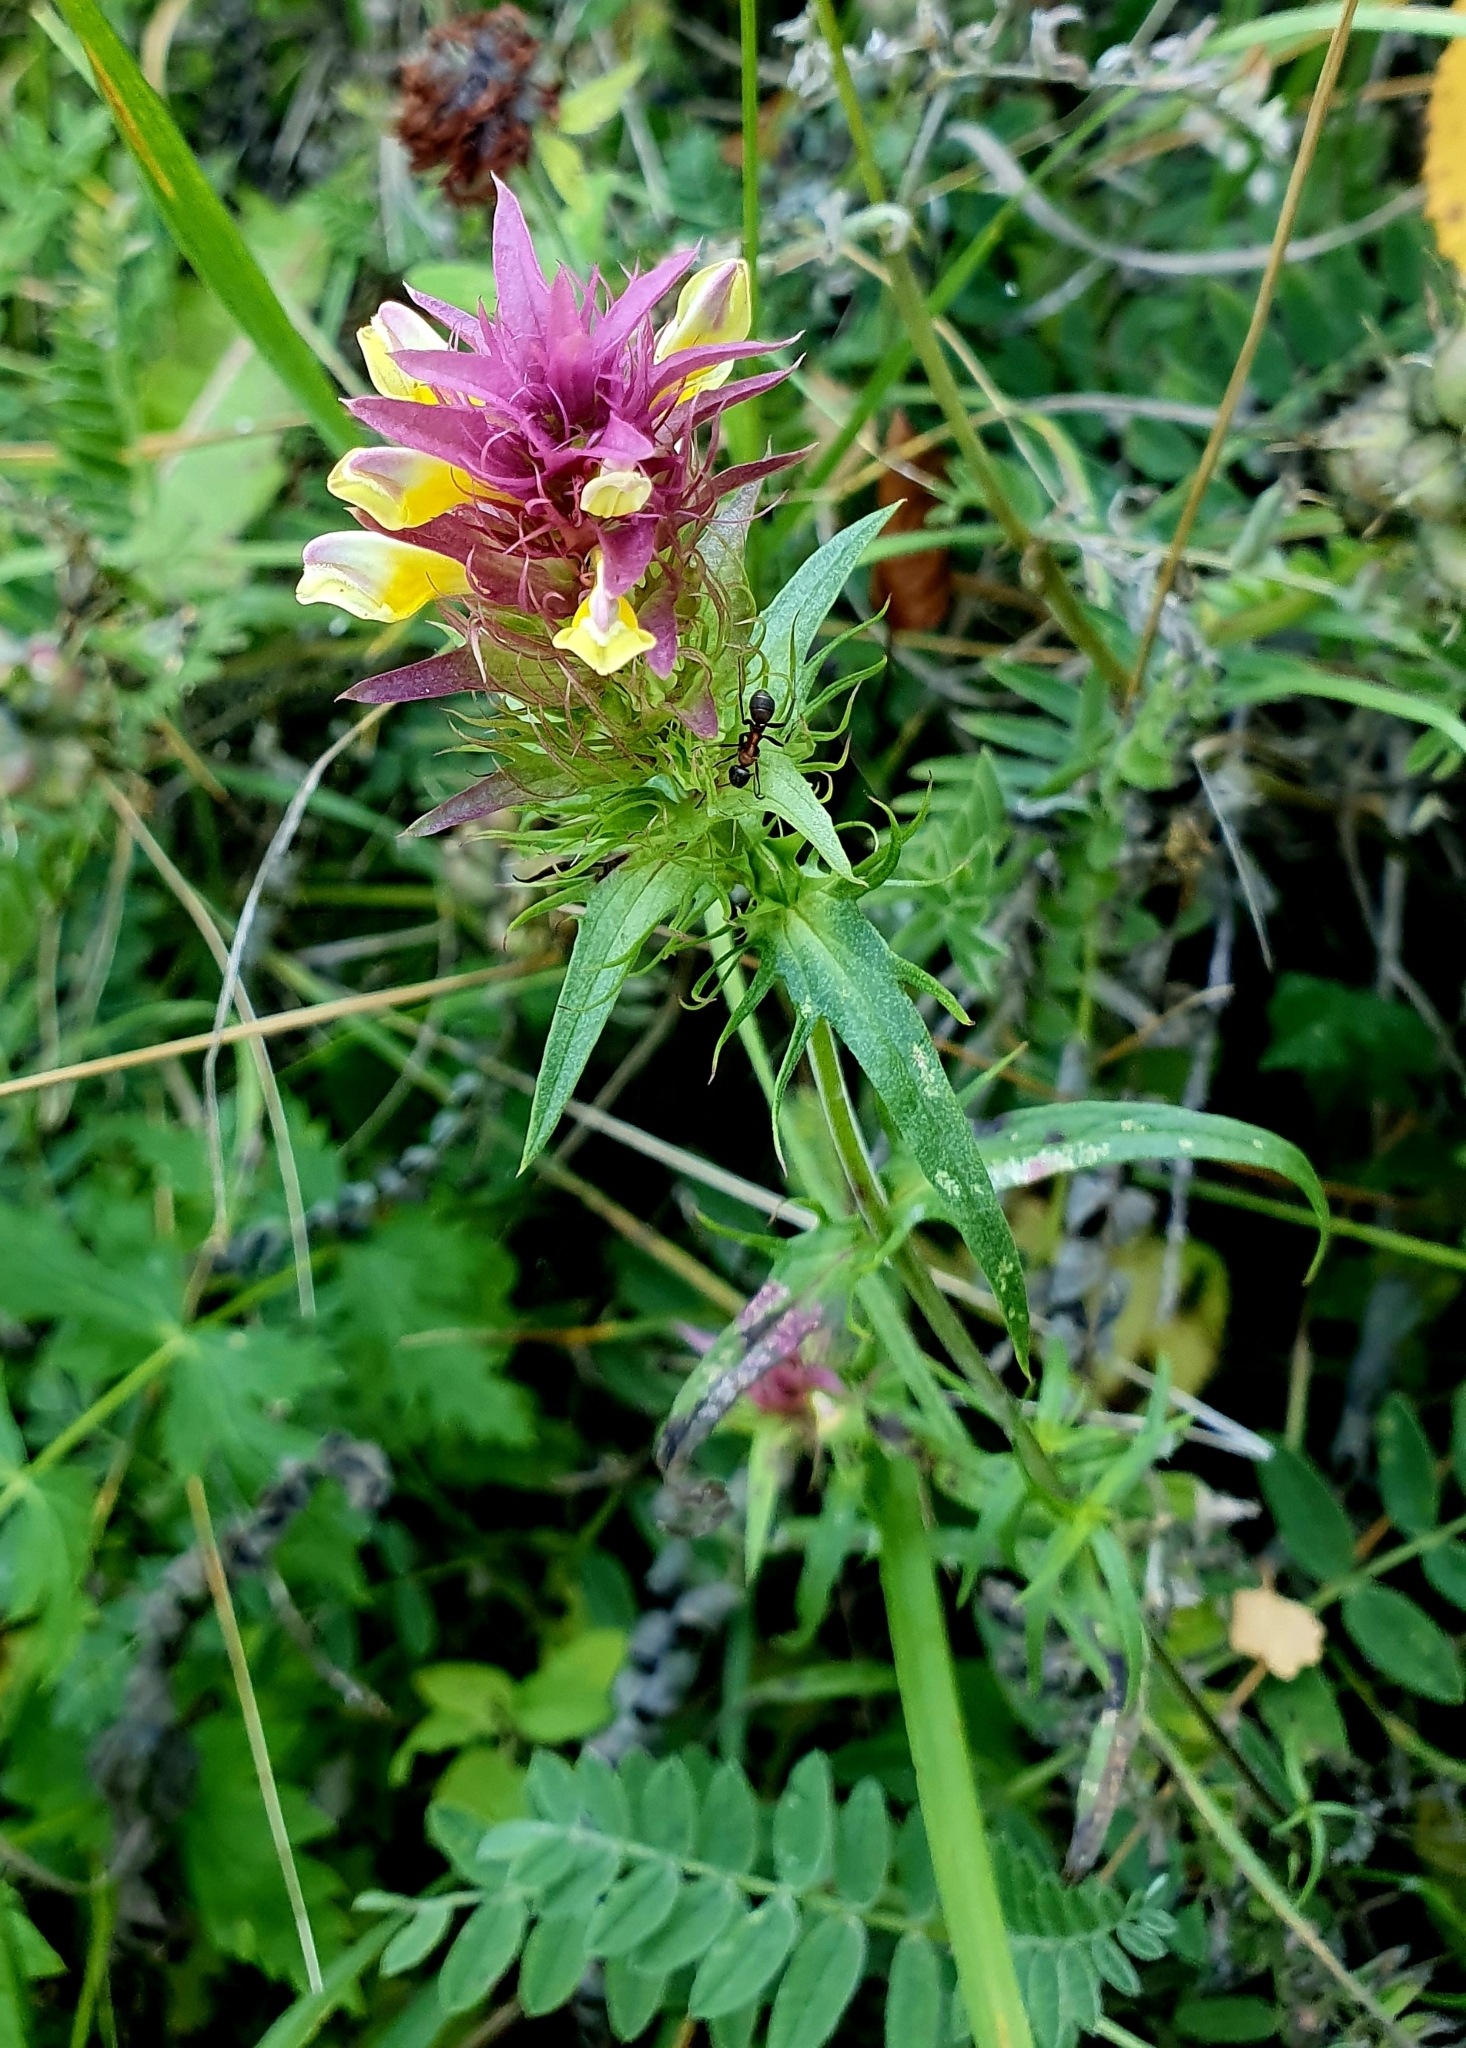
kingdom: Plantae
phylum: Tracheophyta
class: Magnoliopsida
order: Lamiales
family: Orobanchaceae
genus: Melampyrum
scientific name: Melampyrum arvense
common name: Field cow-wheat
